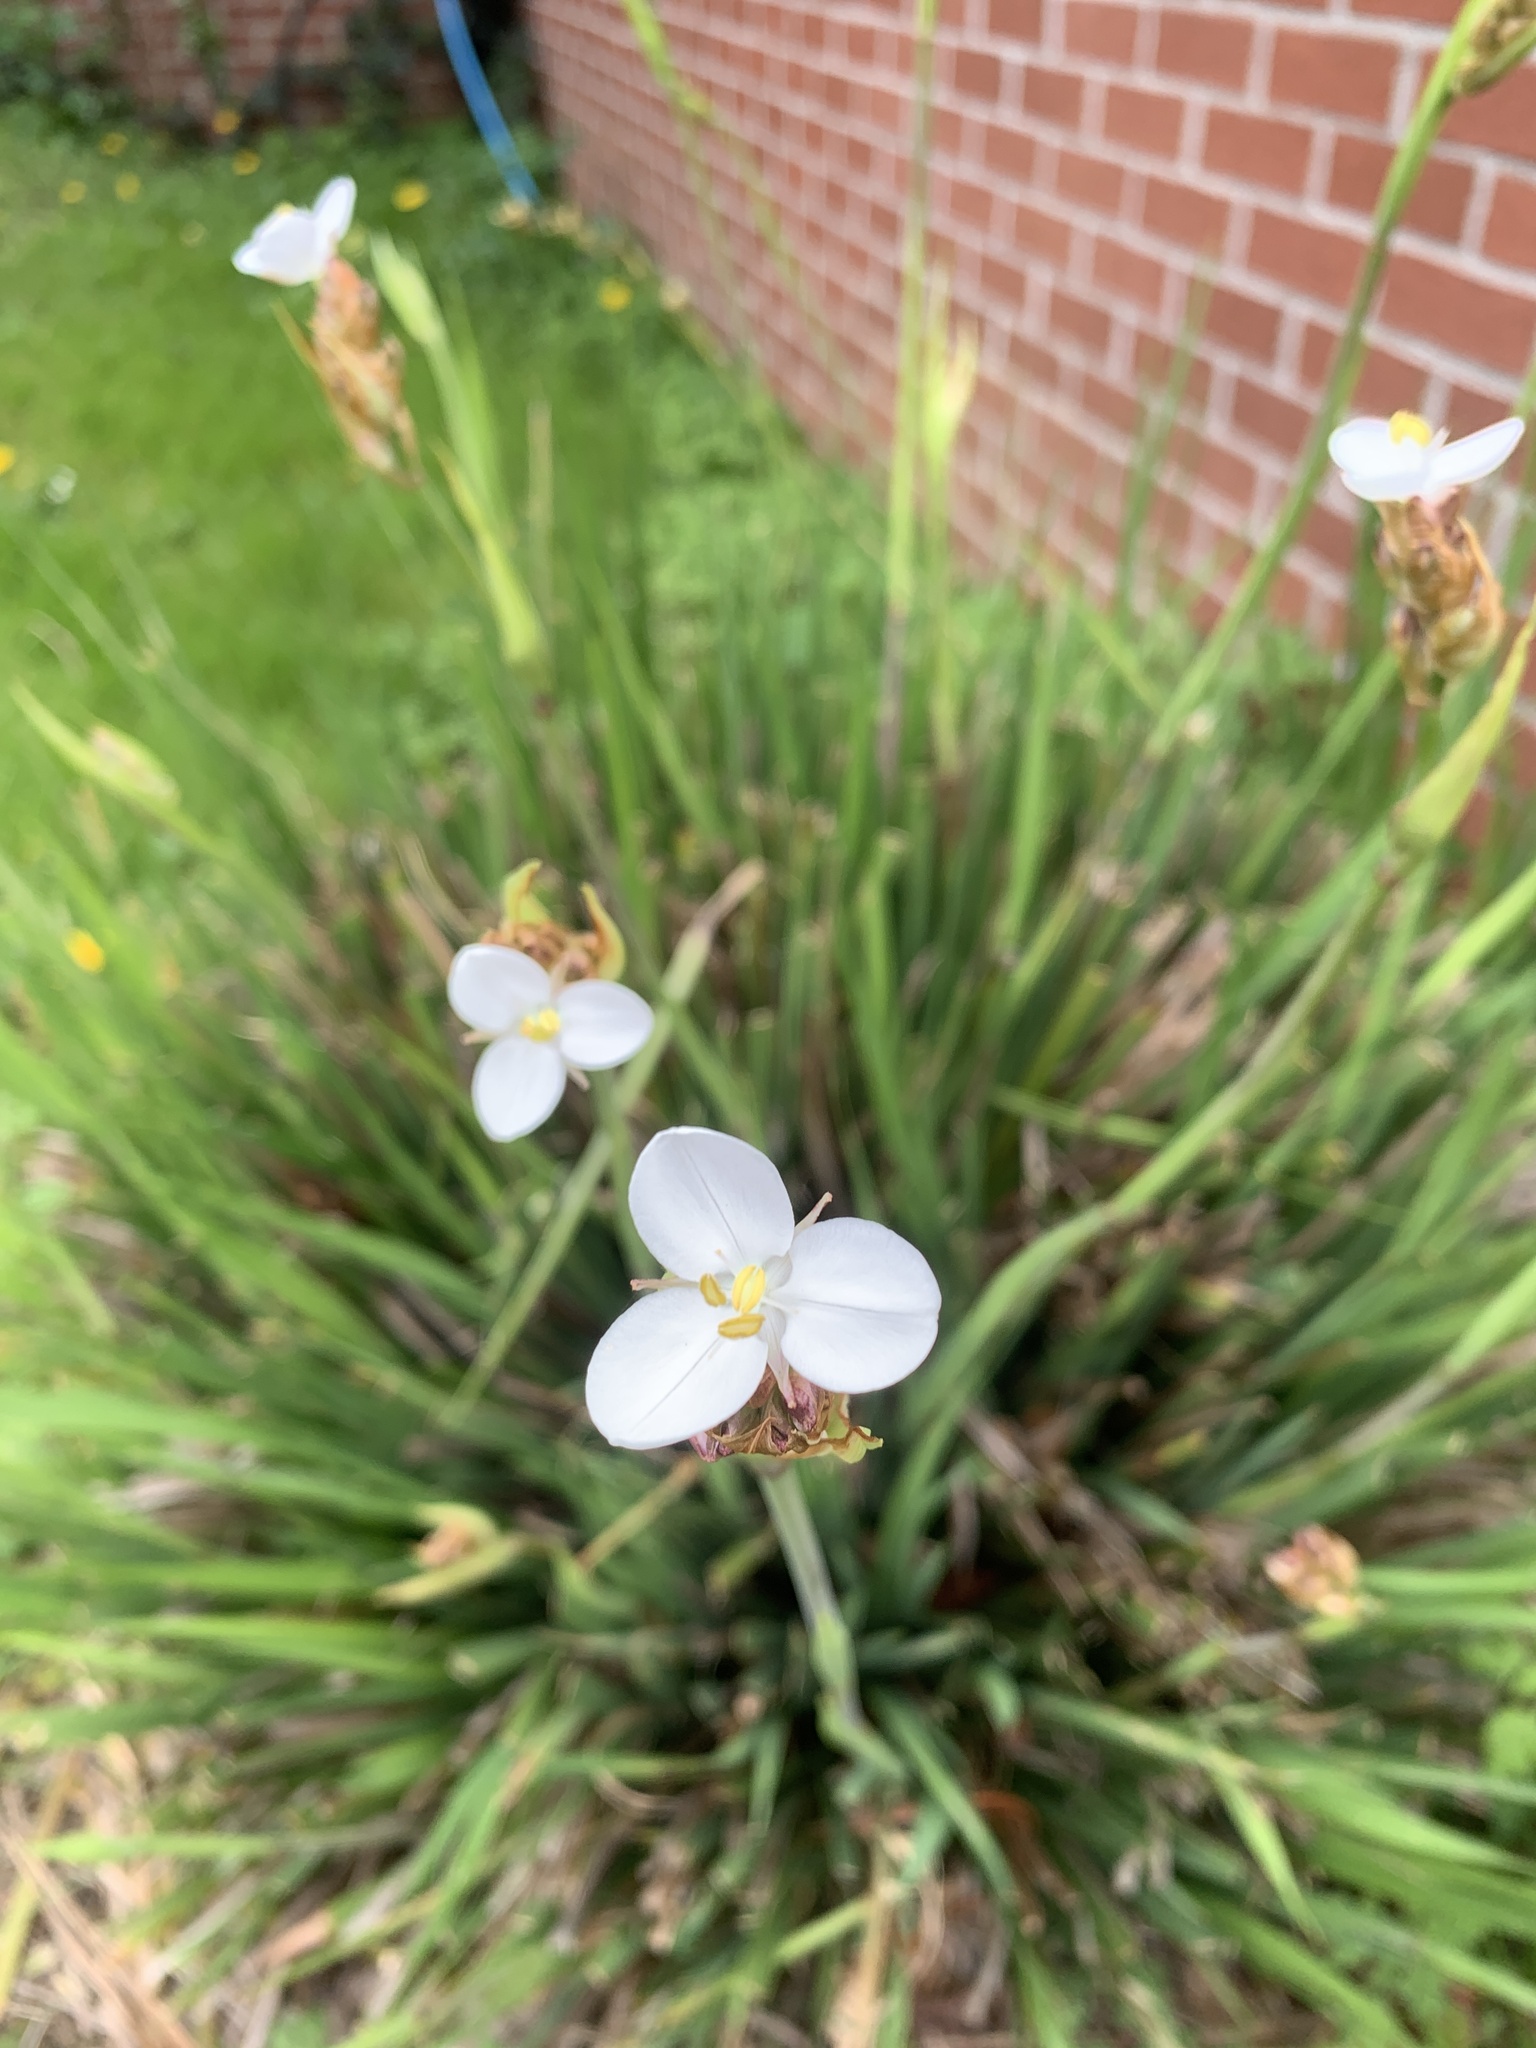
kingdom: Plantae
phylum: Tracheophyta
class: Liliopsida
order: Asparagales
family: Iridaceae
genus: Libertia
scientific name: Libertia chilensis
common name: Satin flower
